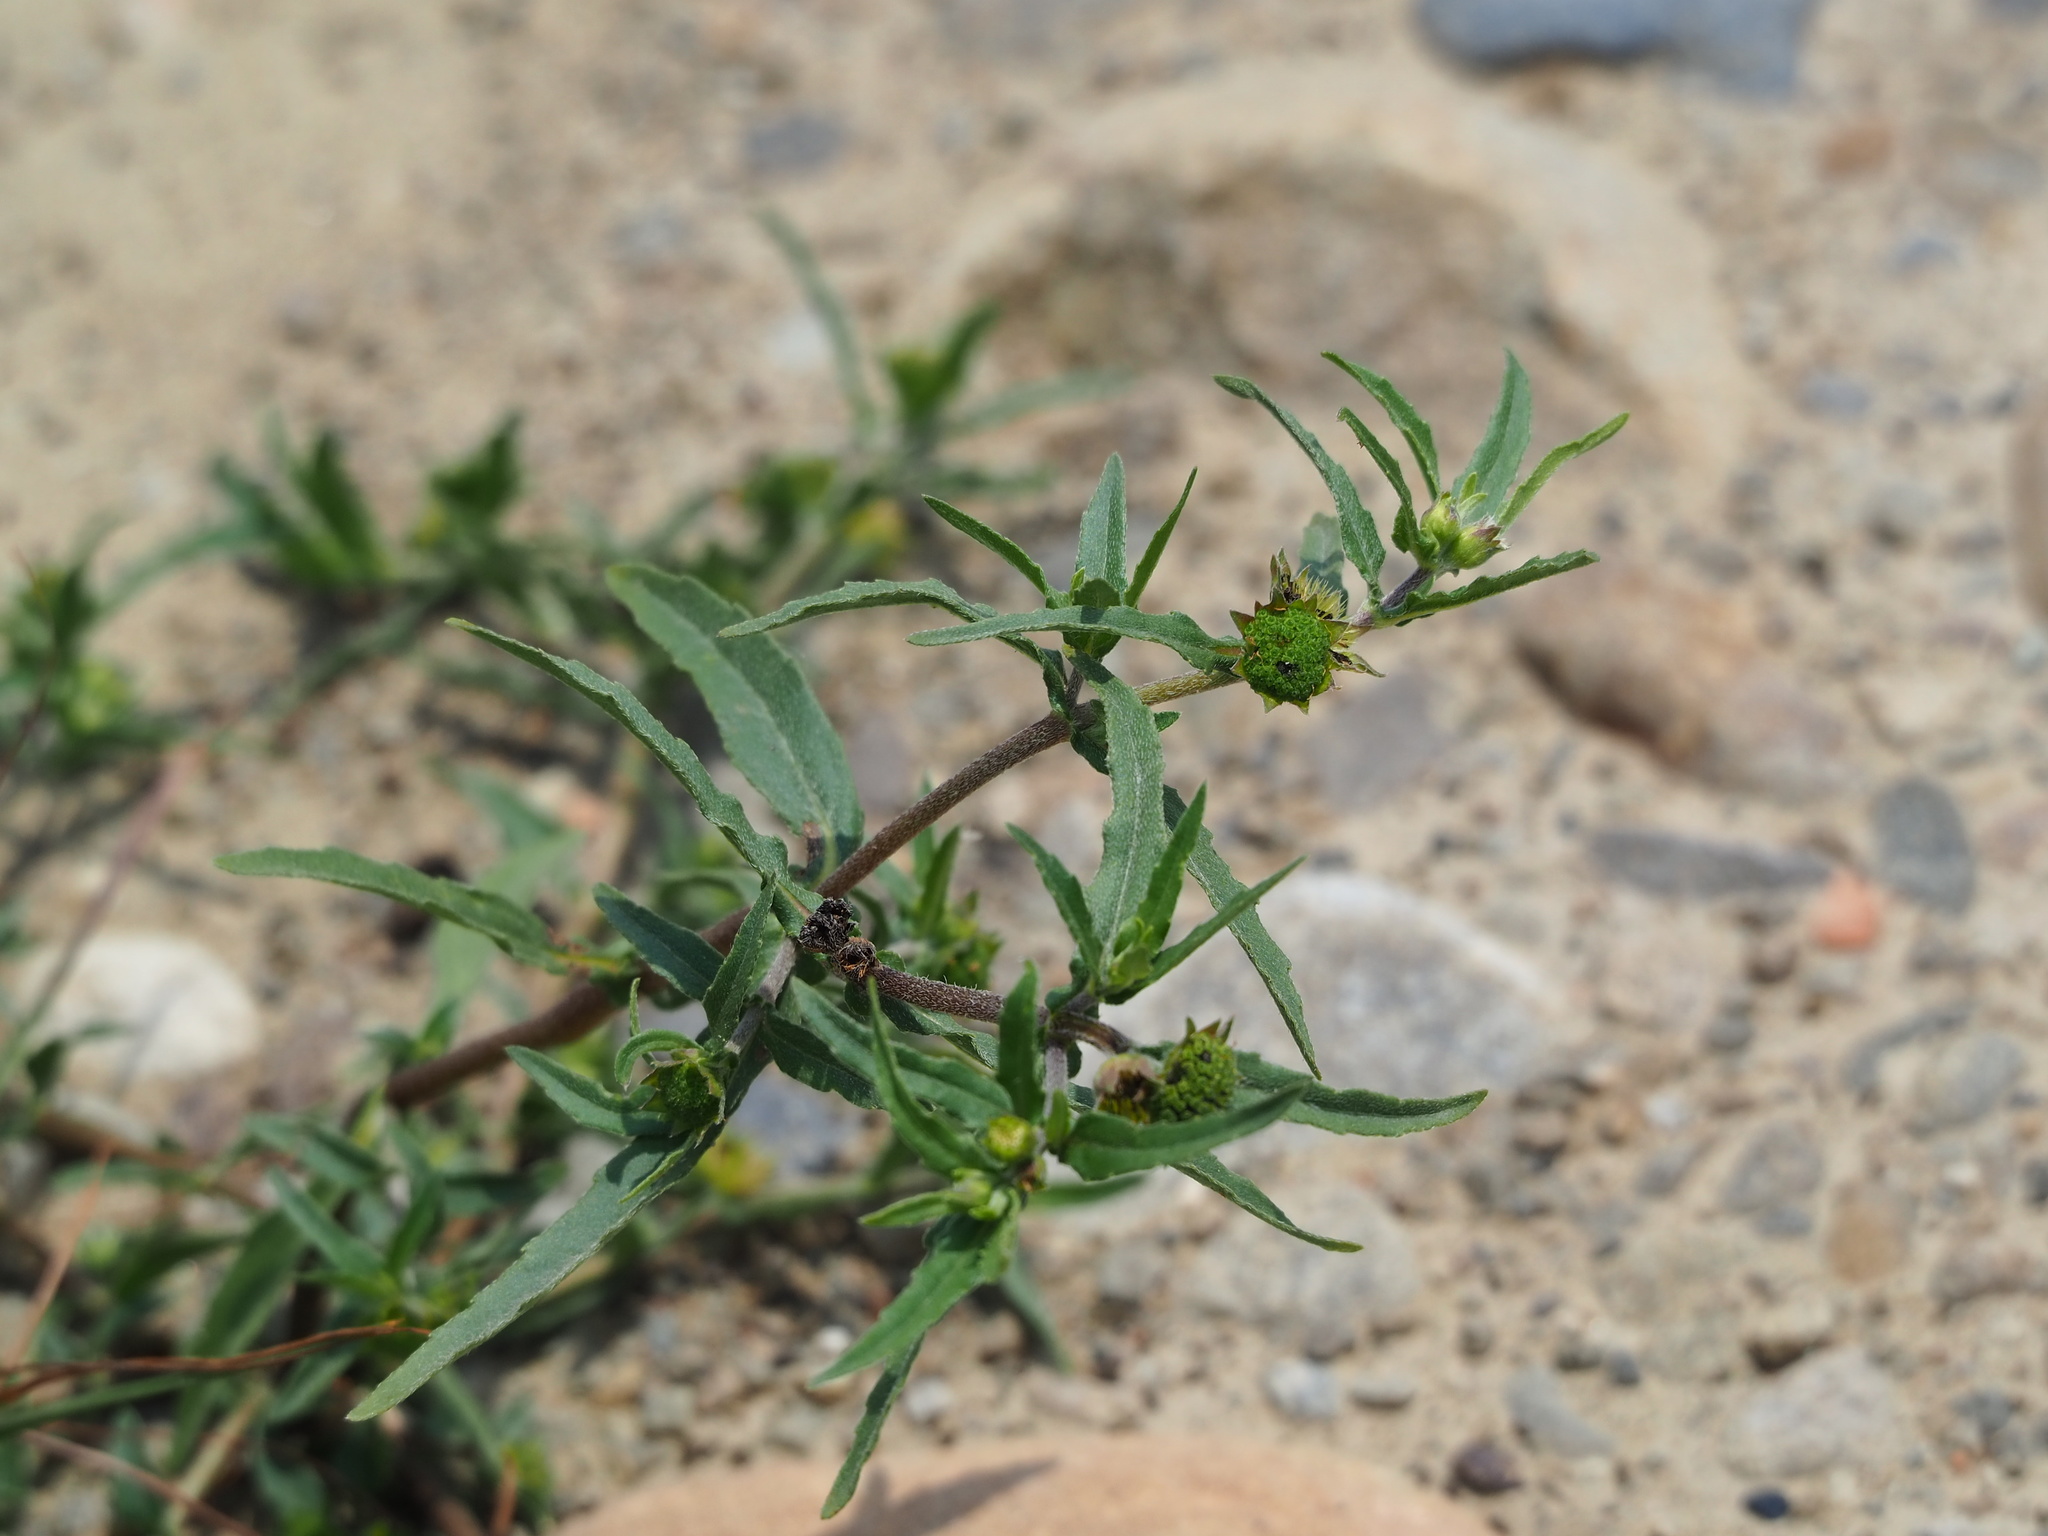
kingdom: Plantae
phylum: Tracheophyta
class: Magnoliopsida
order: Asterales
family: Asteraceae
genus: Eclipta
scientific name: Eclipta prostrata
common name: False daisy
